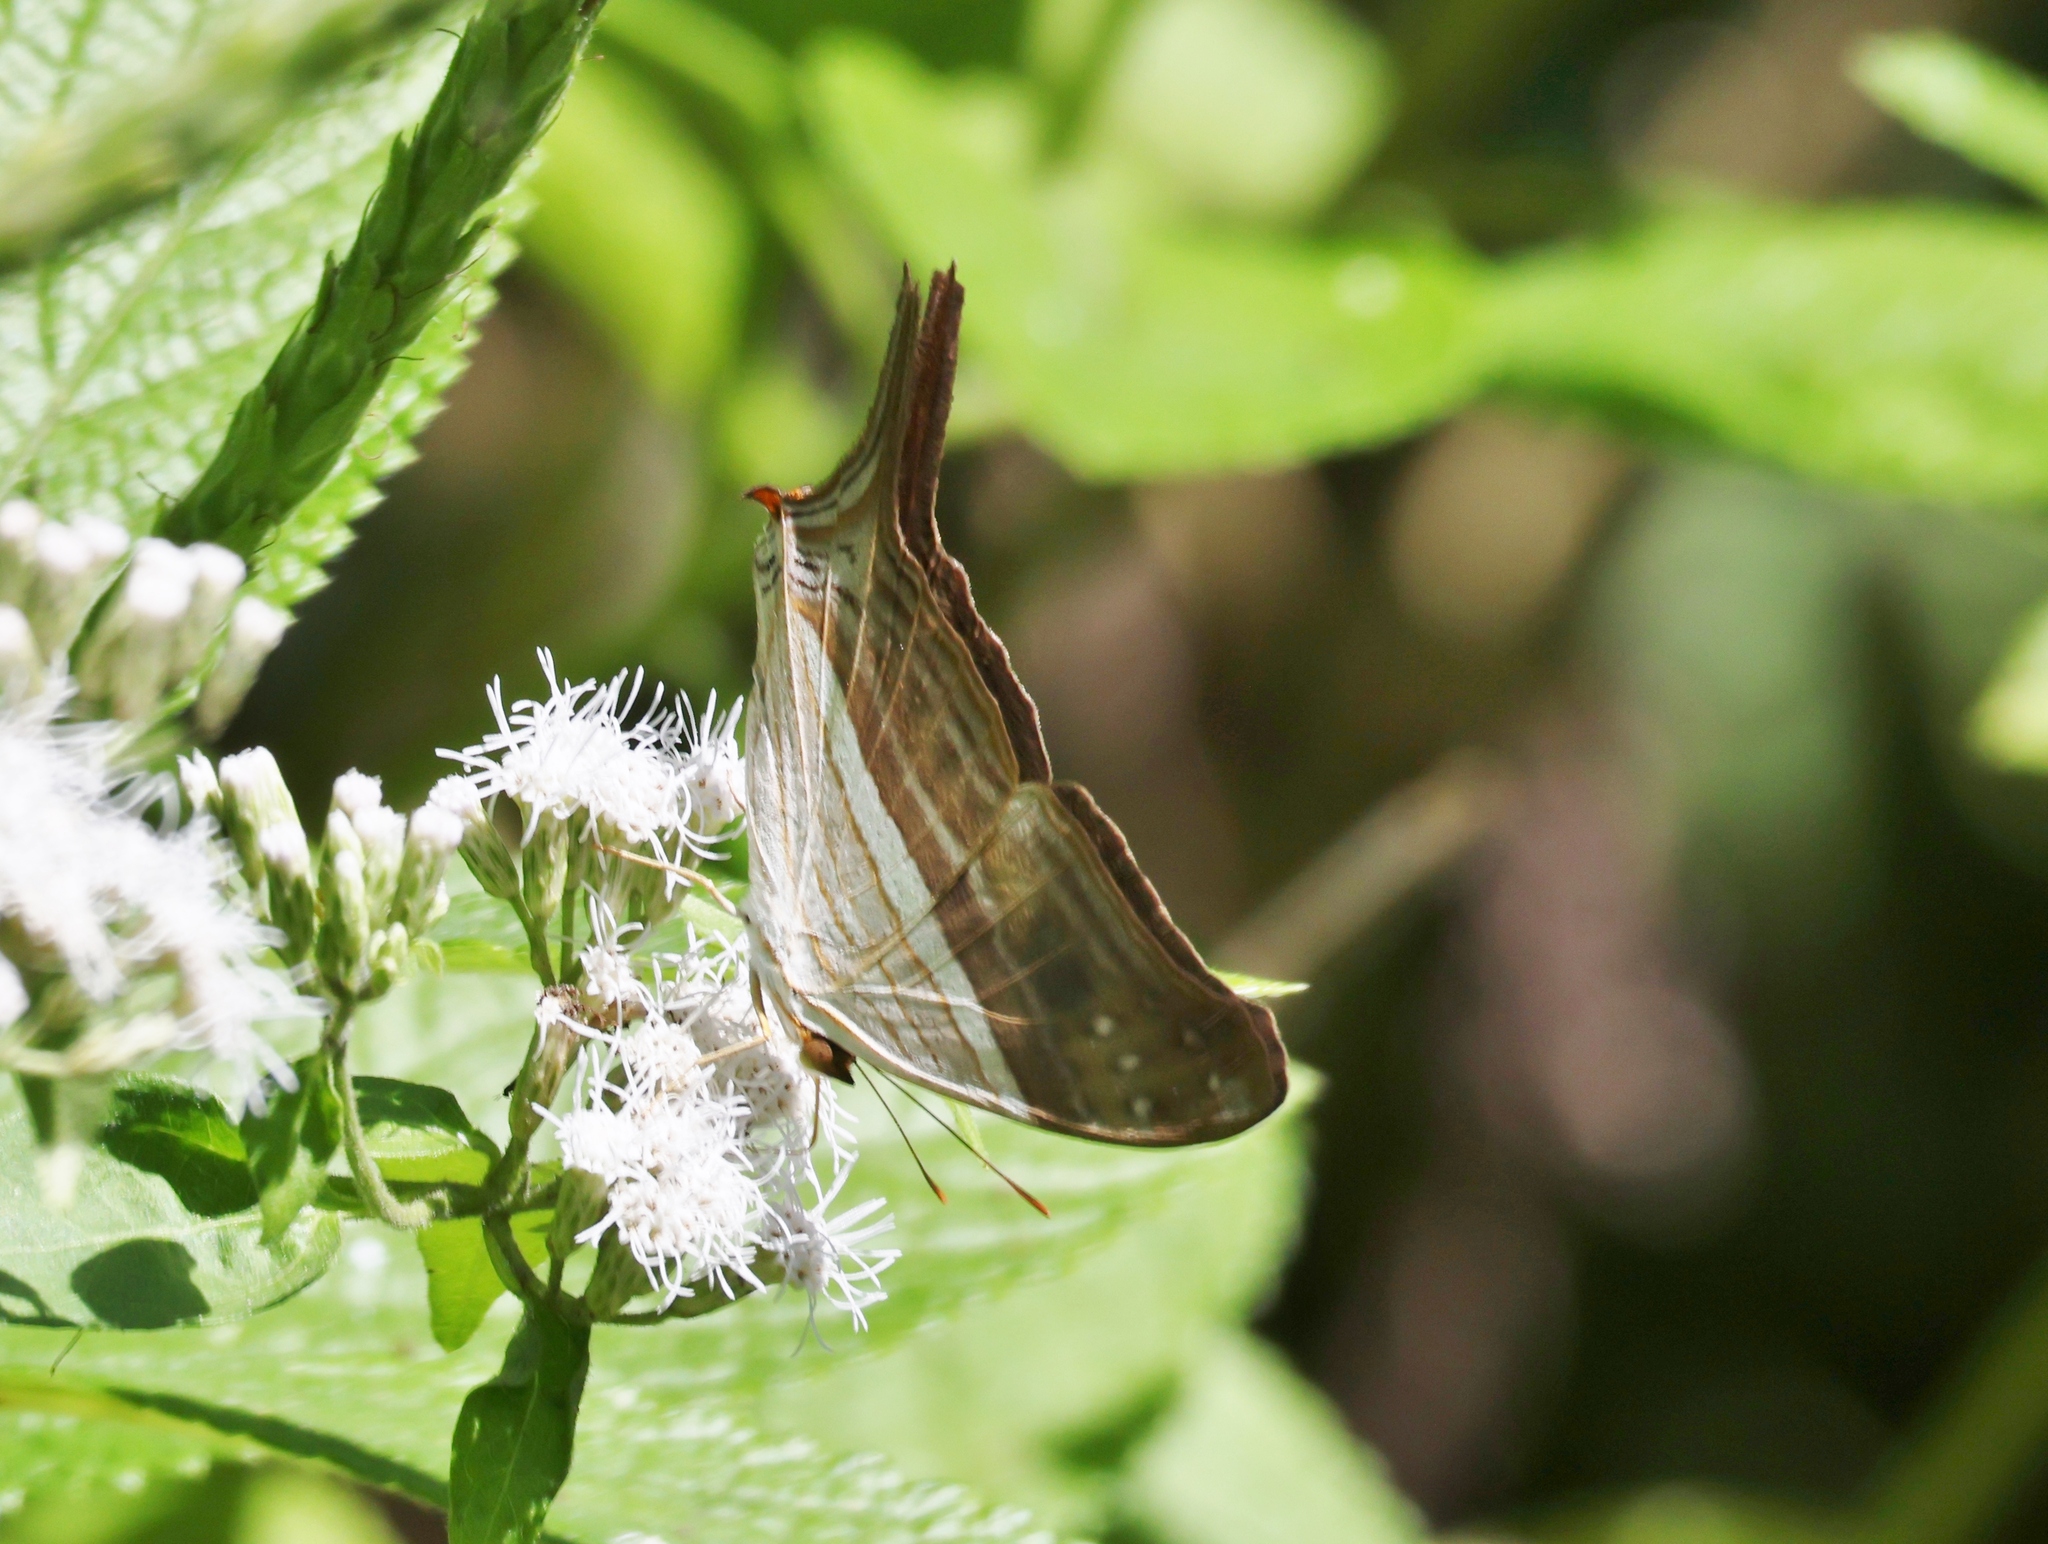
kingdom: Animalia
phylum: Arthropoda
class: Insecta
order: Lepidoptera
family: Nymphalidae
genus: Marpesia
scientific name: Marpesia chiron
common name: Many-banded daggerwing
